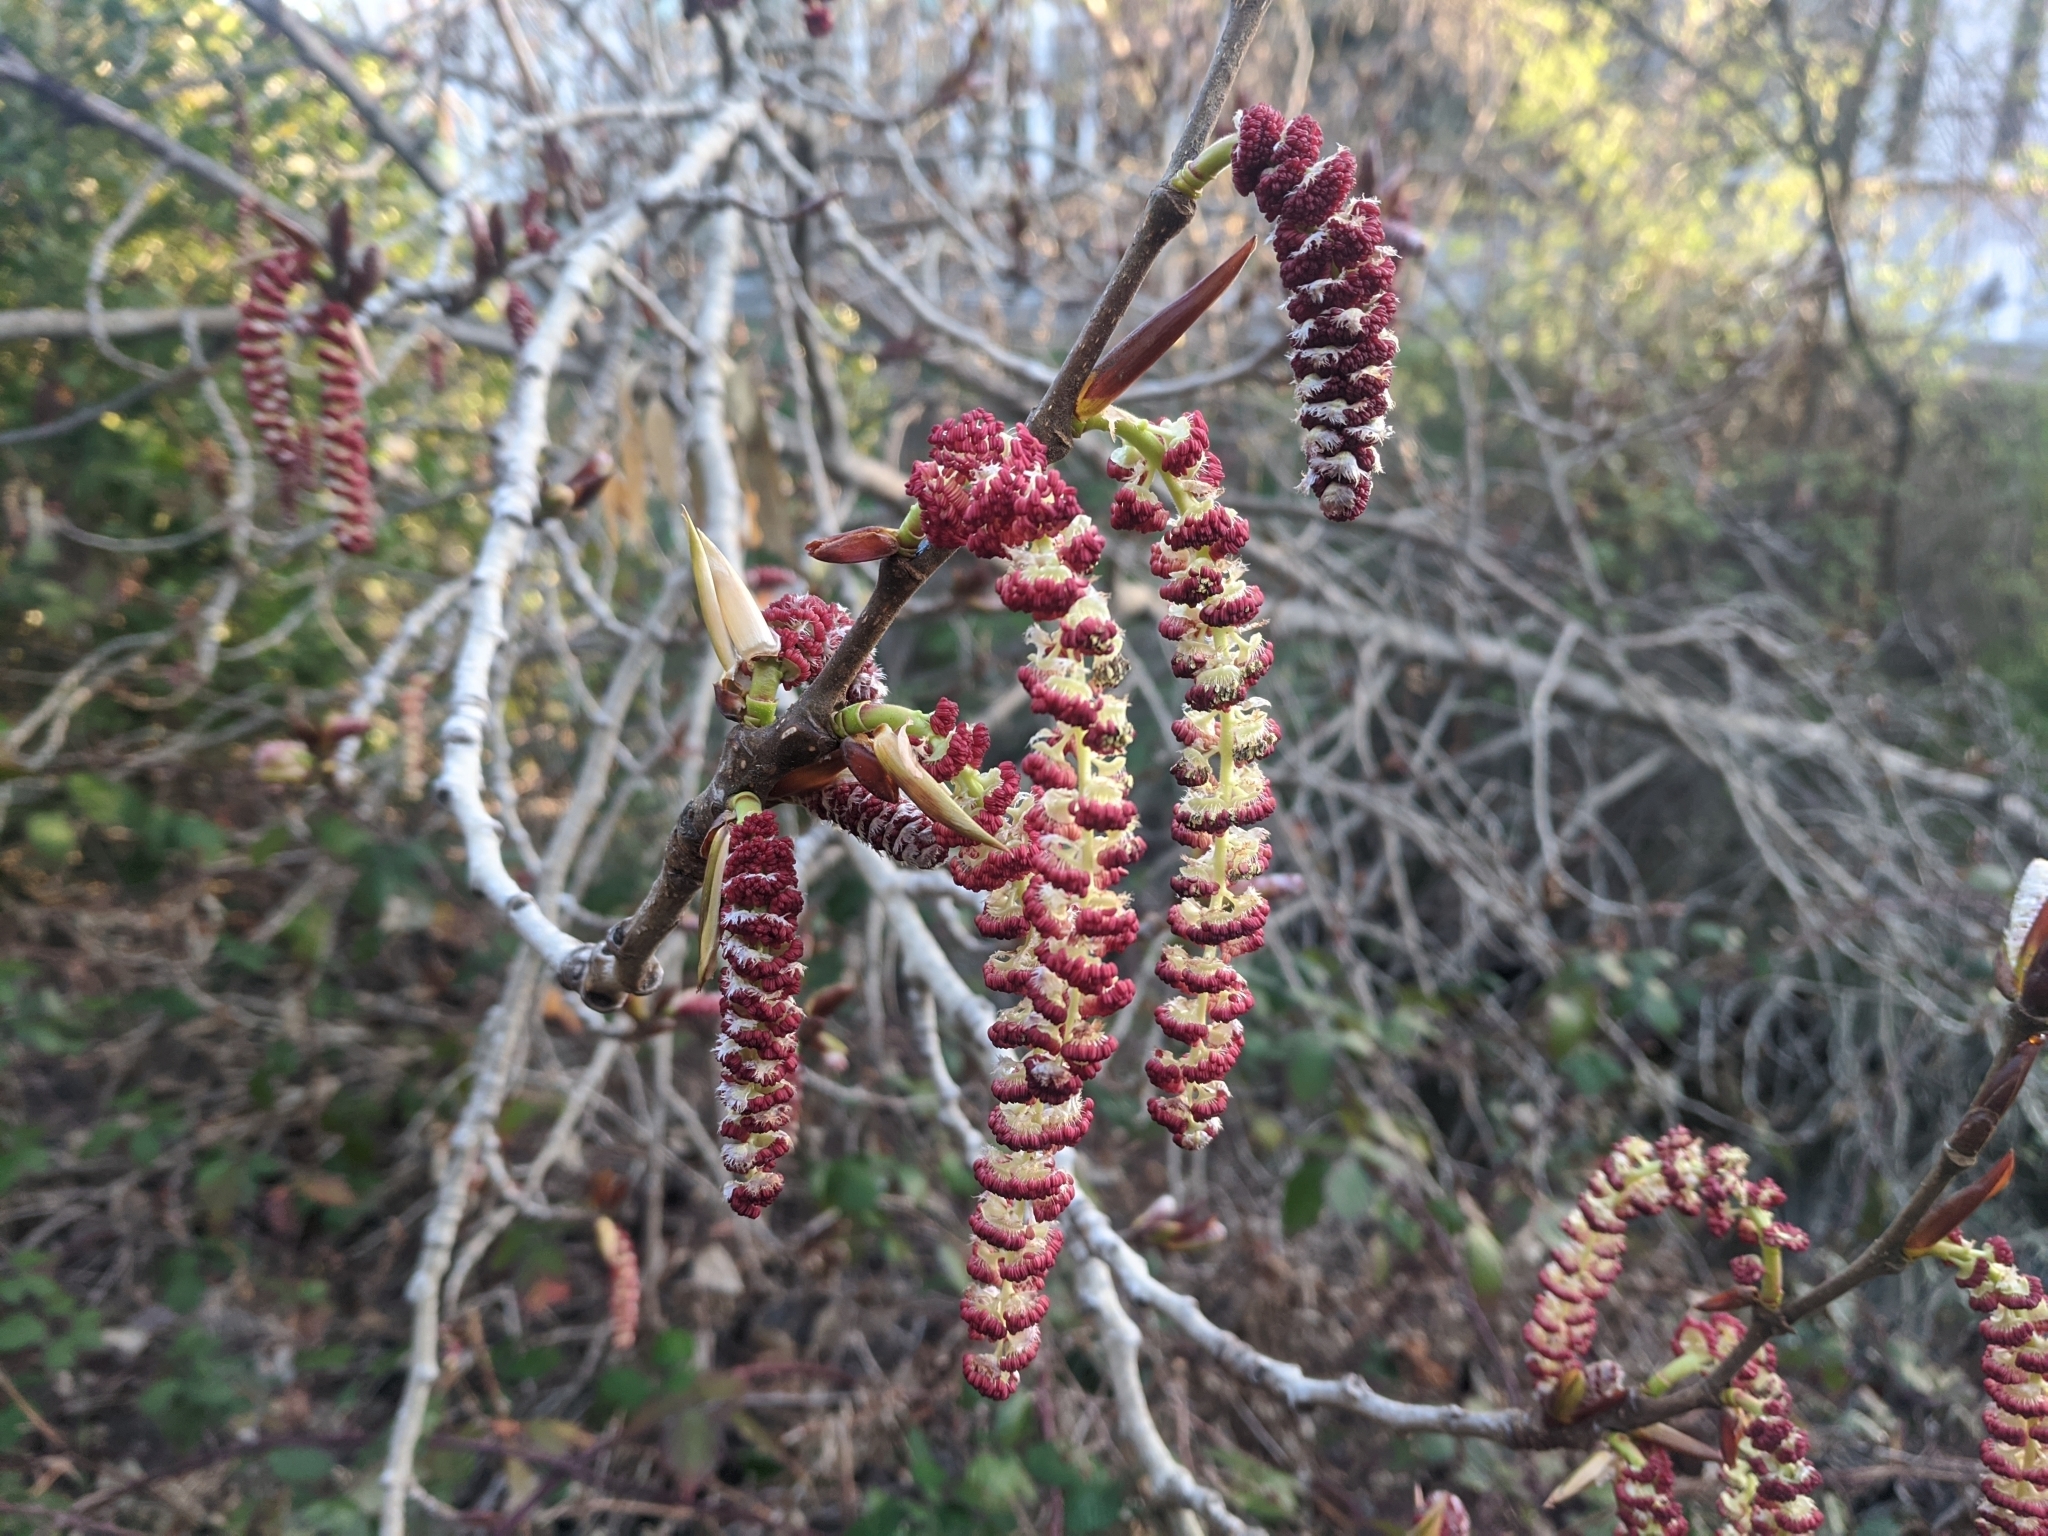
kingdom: Plantae
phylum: Tracheophyta
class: Magnoliopsida
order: Malpighiales
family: Salicaceae
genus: Populus
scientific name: Populus trichocarpa
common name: Black cottonwood
